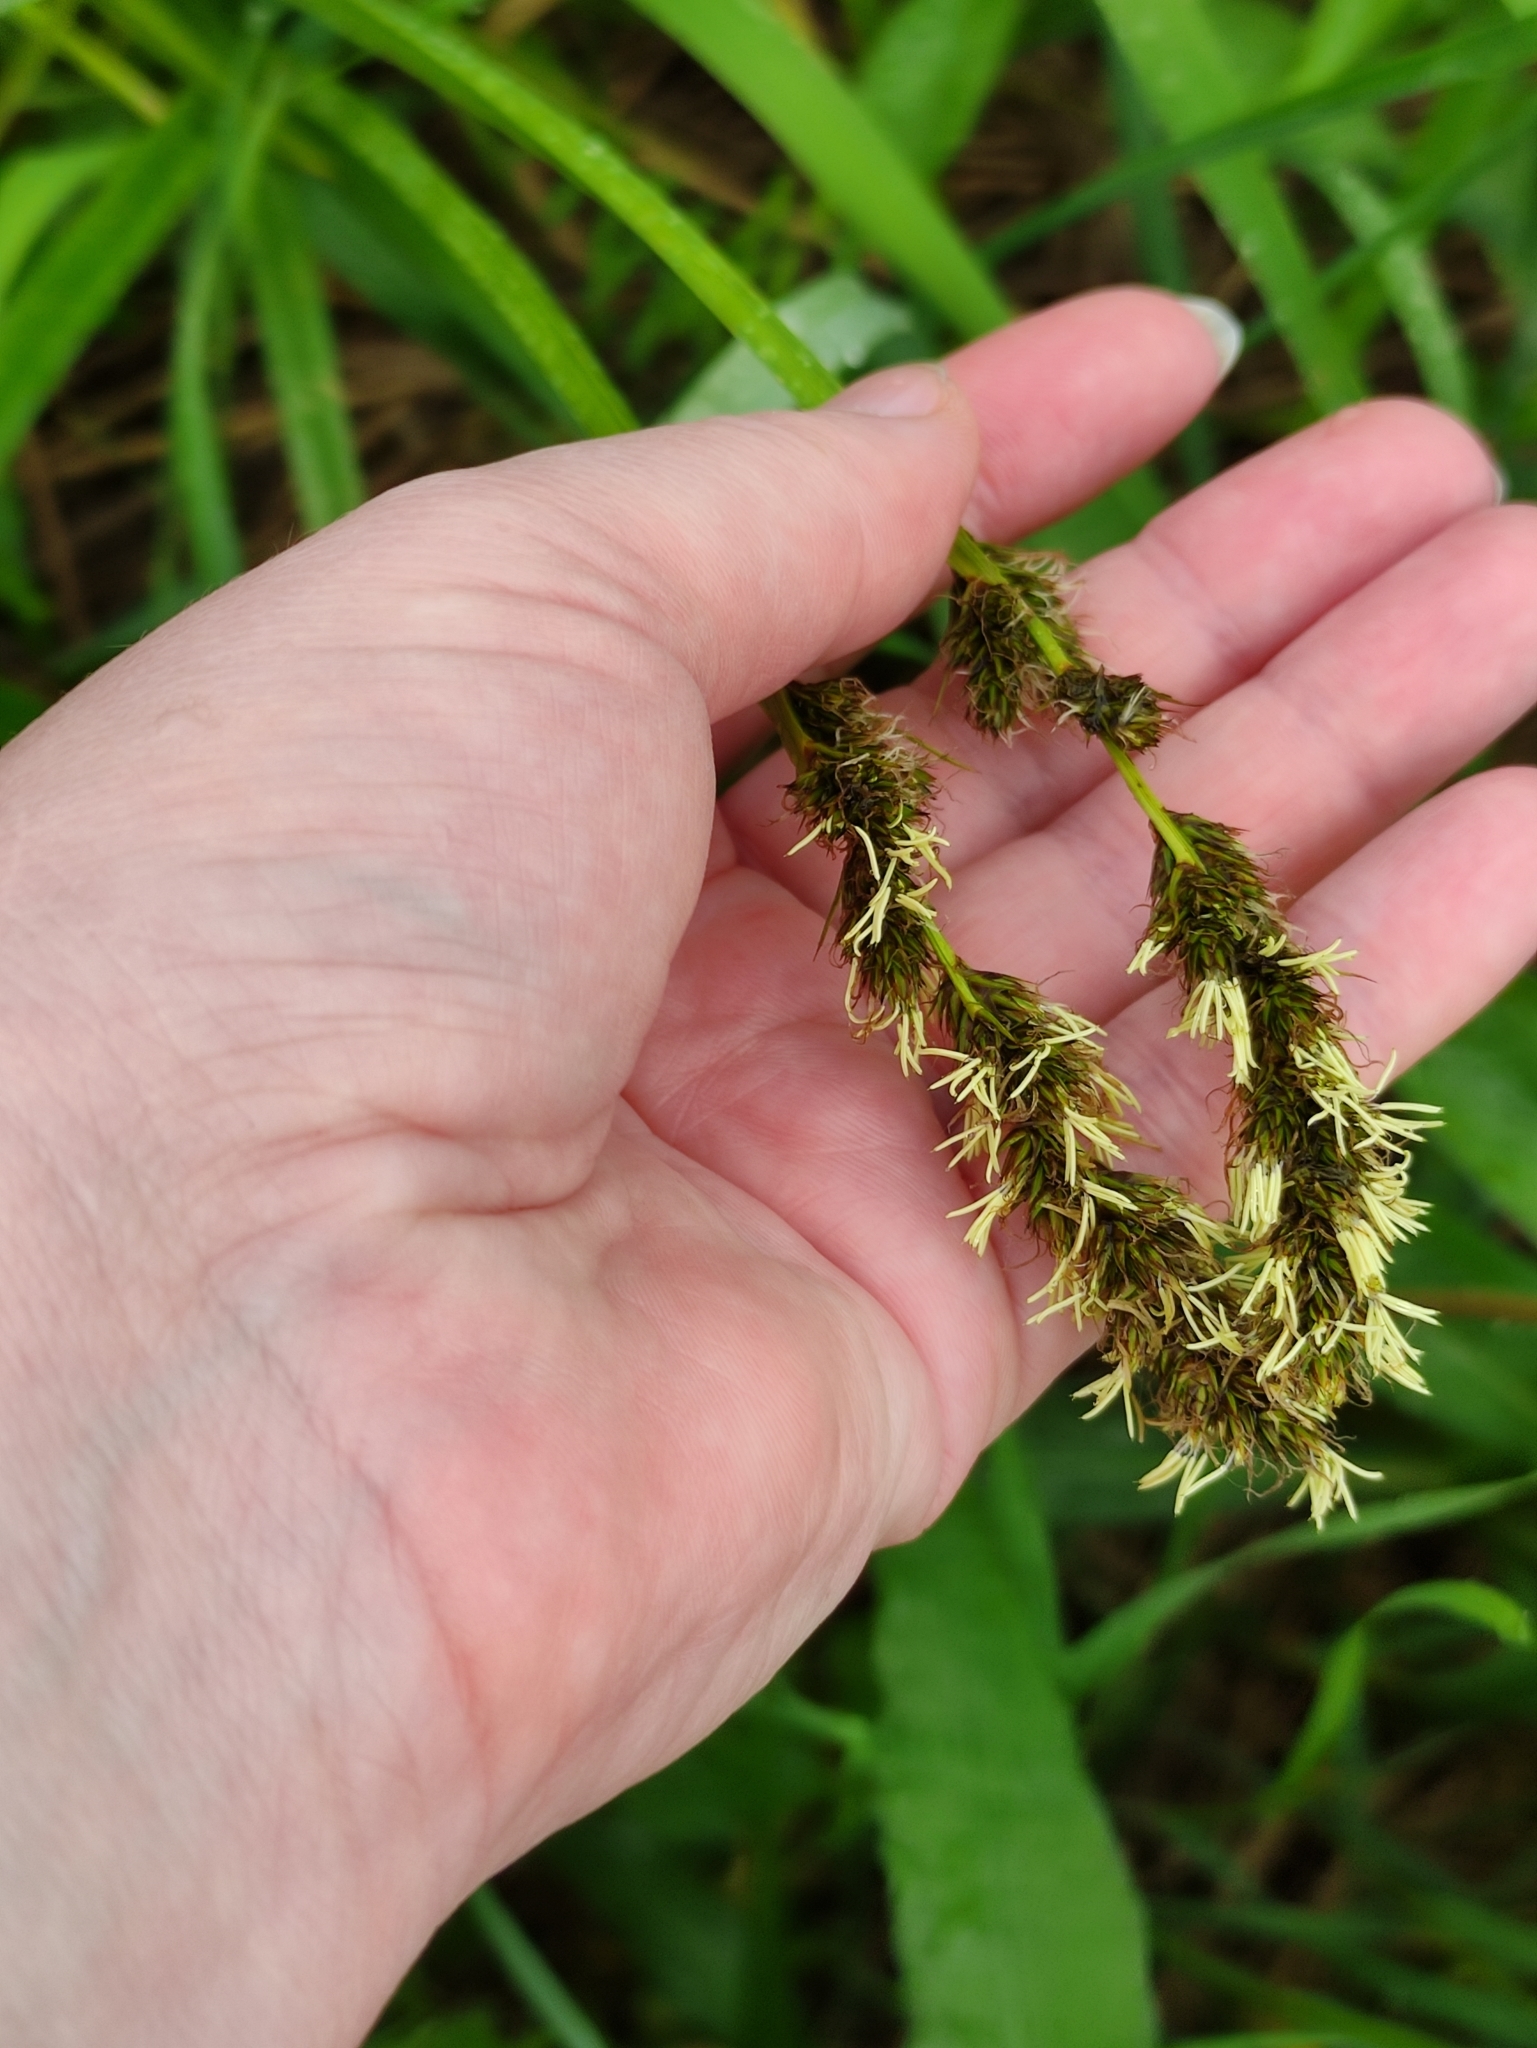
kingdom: Plantae
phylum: Tracheophyta
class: Liliopsida
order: Poales
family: Cyperaceae
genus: Carex
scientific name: Carex vulpina
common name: True fox-sedge
